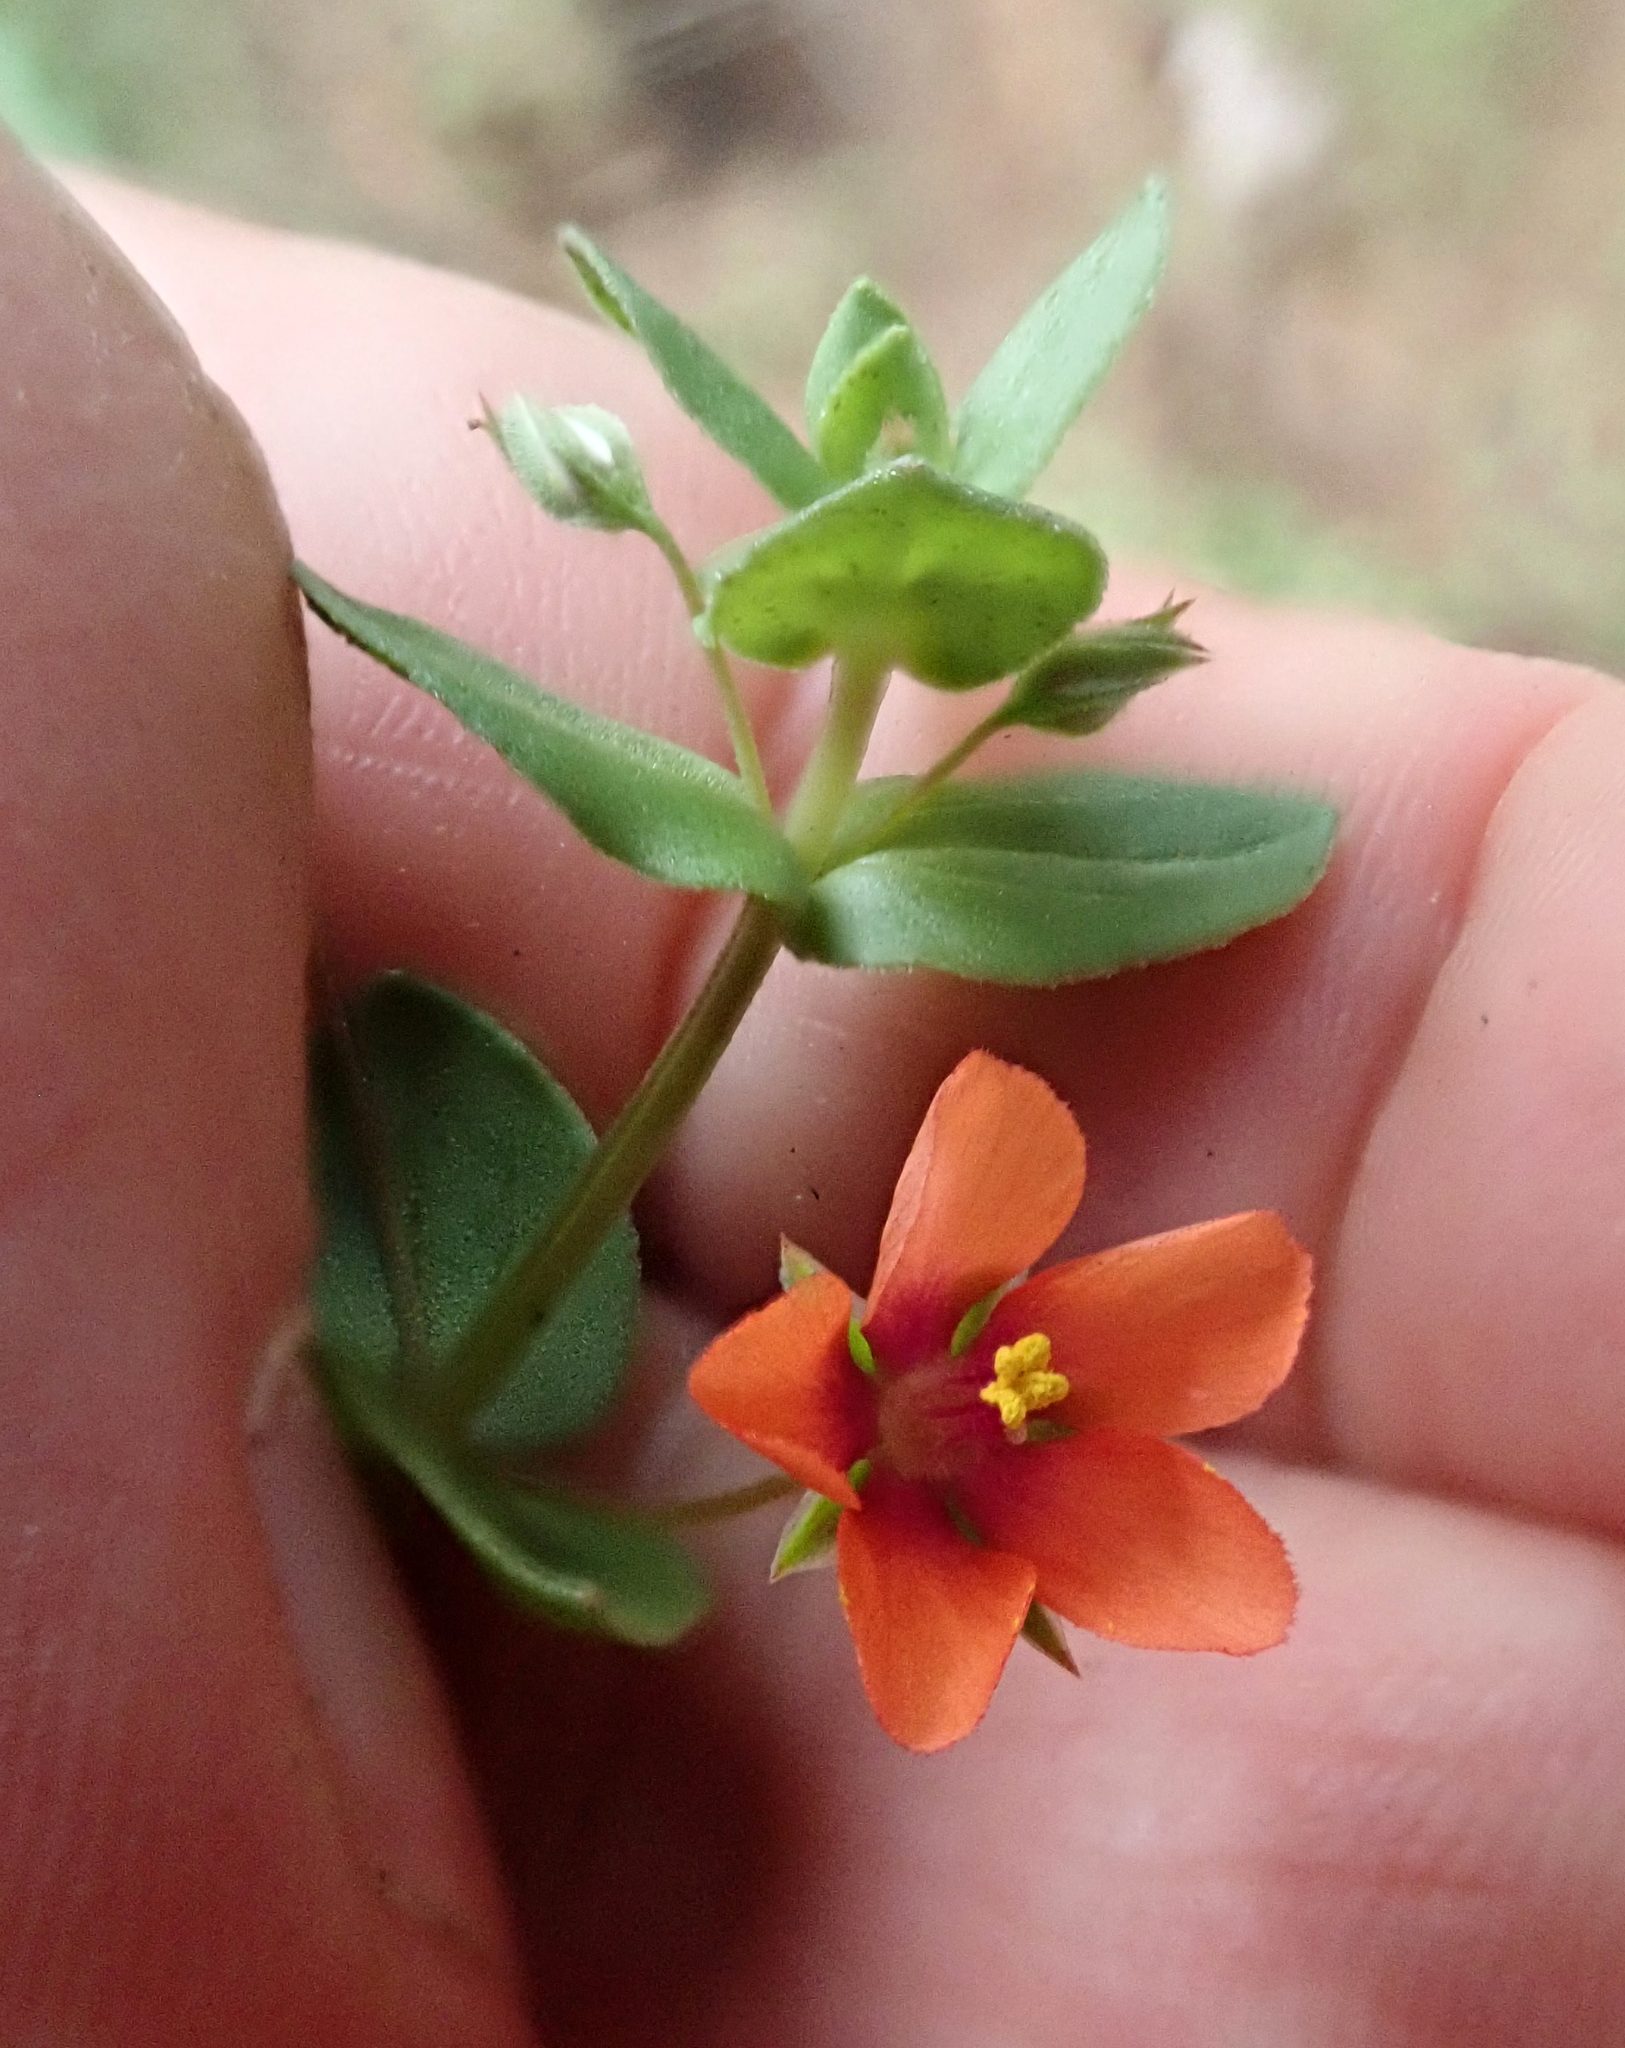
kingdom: Plantae
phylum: Tracheophyta
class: Magnoliopsida
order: Ericales
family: Primulaceae
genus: Lysimachia
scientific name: Lysimachia arvensis
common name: Scarlet pimpernel
